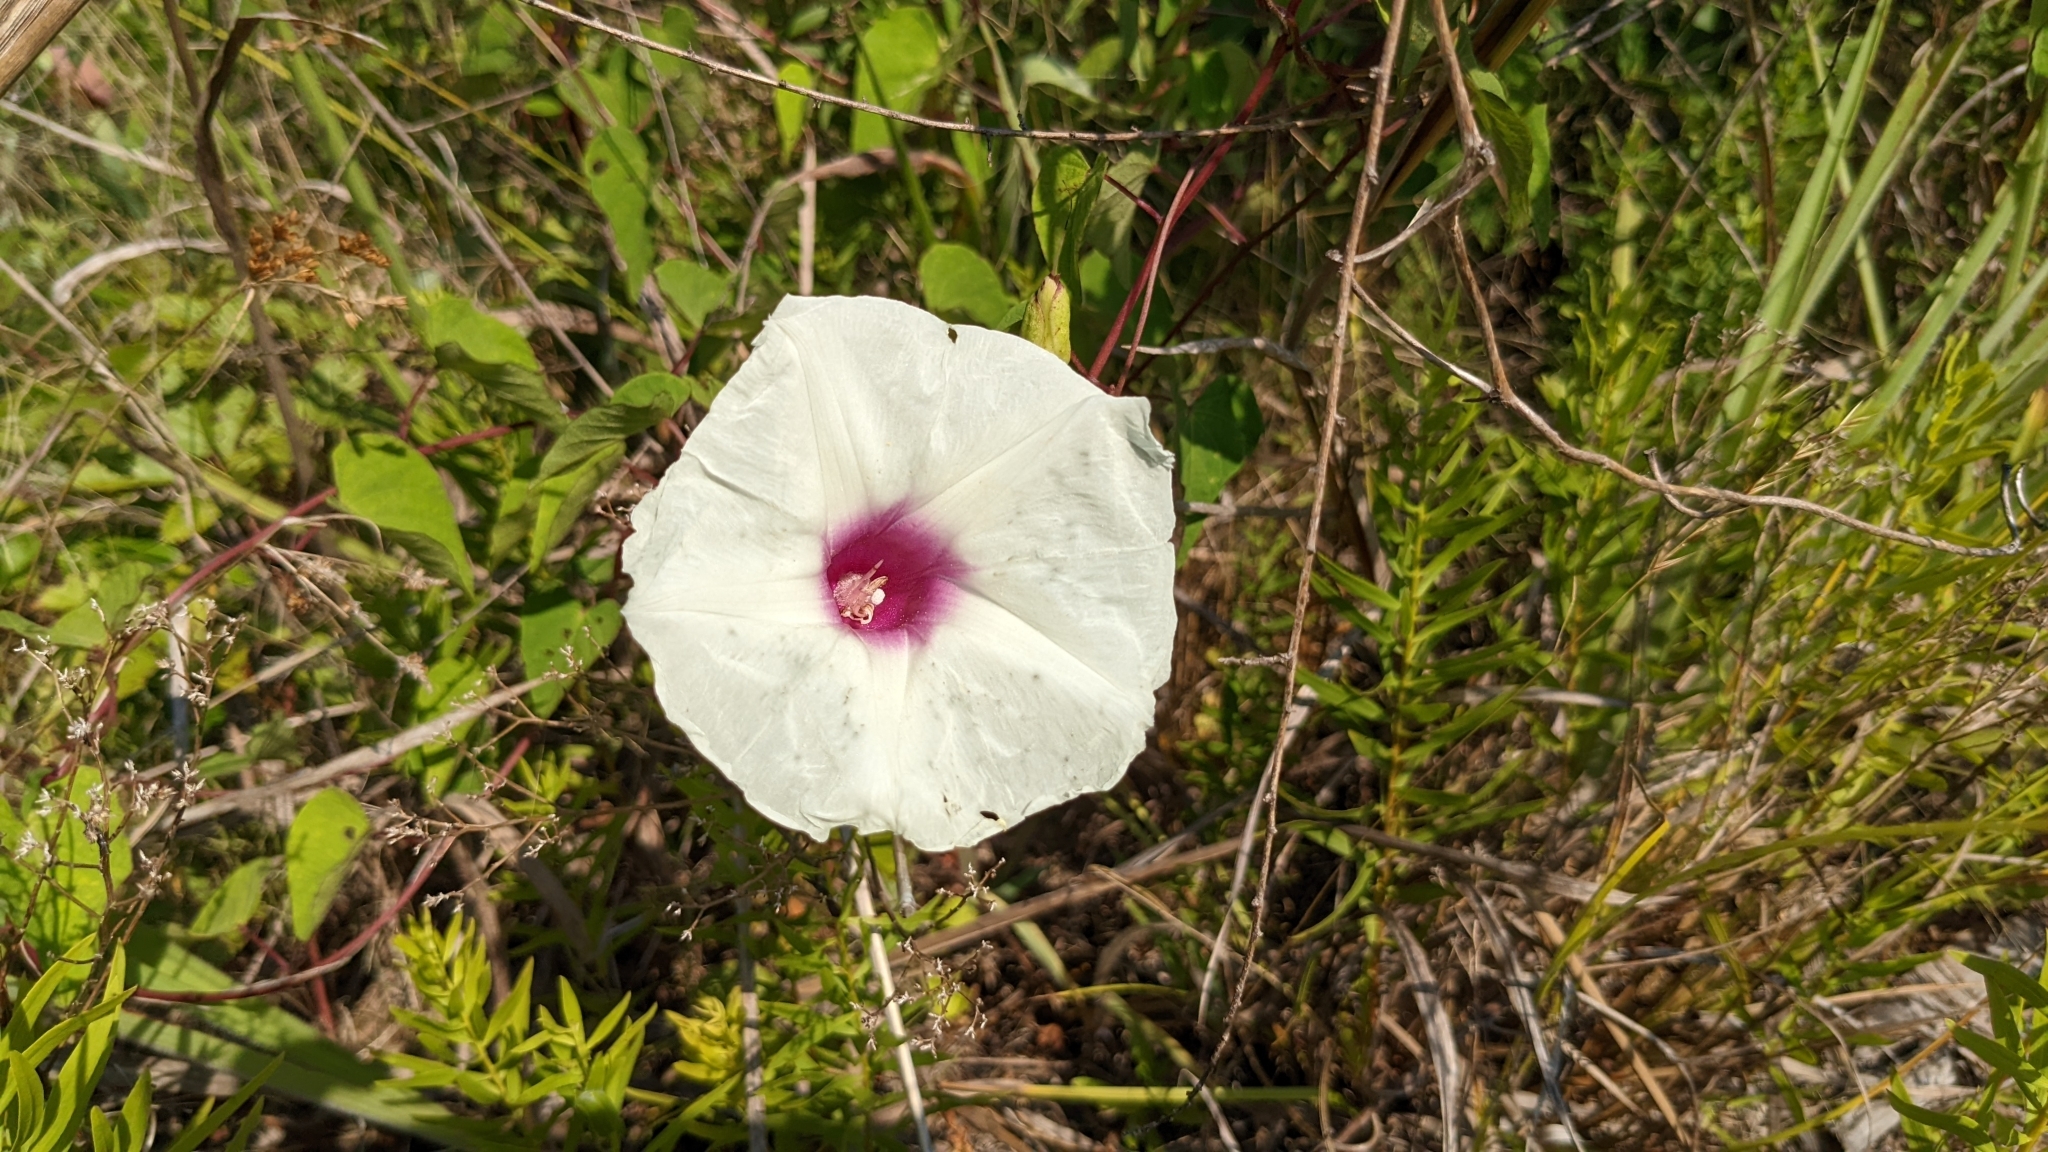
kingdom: Plantae
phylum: Tracheophyta
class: Magnoliopsida
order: Solanales
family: Convolvulaceae
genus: Ipomoea
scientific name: Ipomoea pandurata
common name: Man-of-the-earth
